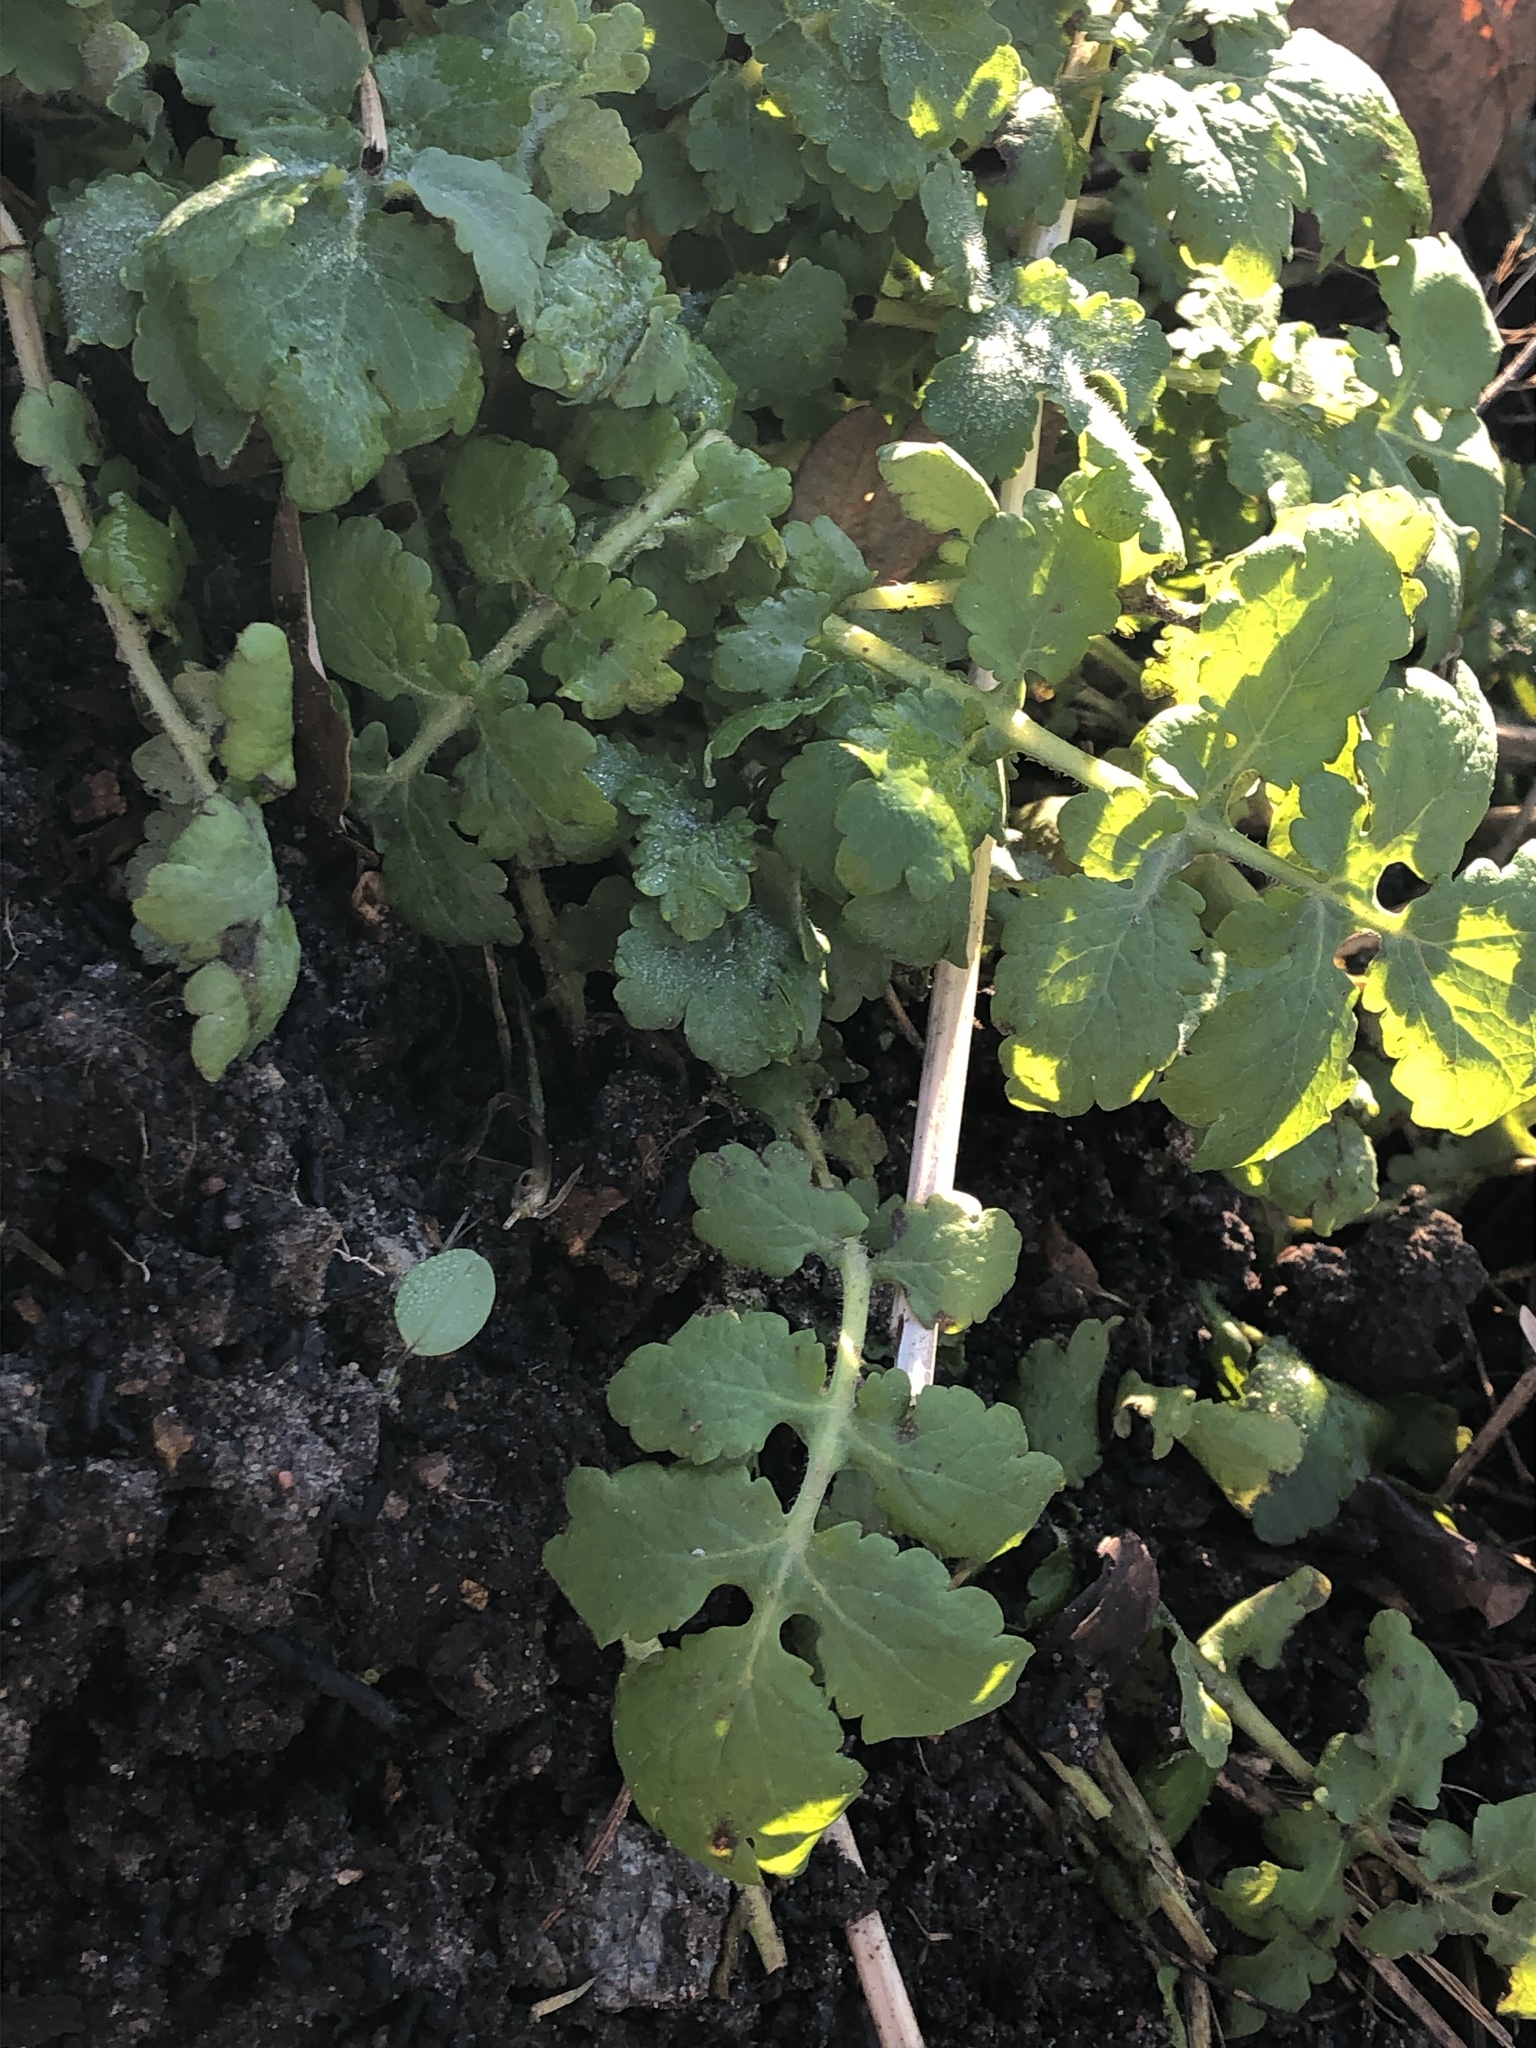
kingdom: Plantae
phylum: Tracheophyta
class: Magnoliopsida
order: Ranunculales
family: Papaveraceae
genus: Chelidonium
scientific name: Chelidonium majus
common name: Greater celandine
